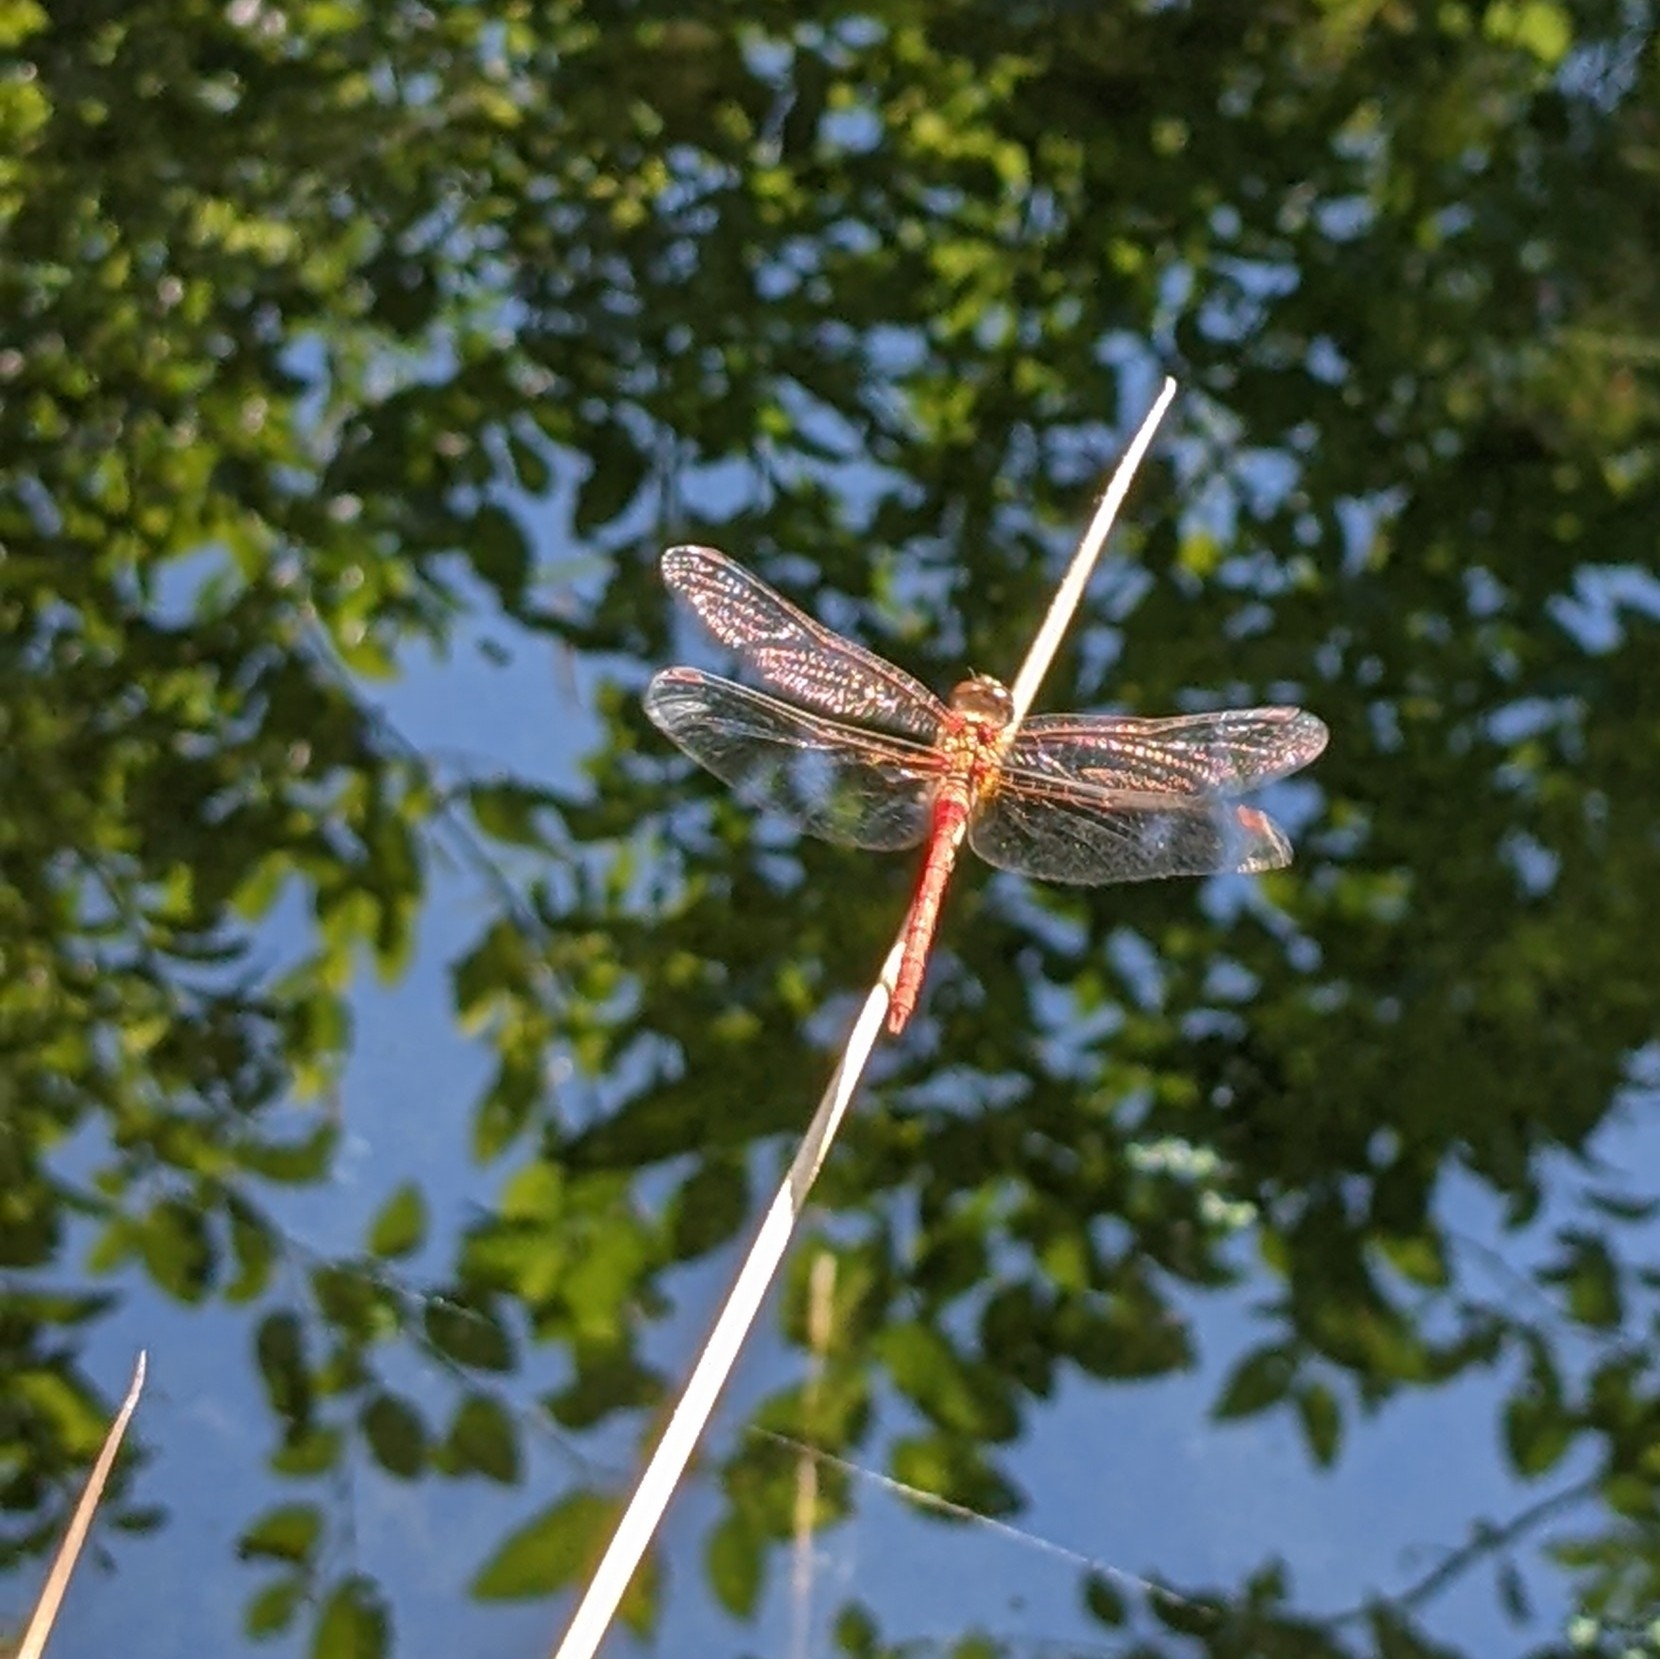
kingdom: Animalia
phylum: Arthropoda
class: Insecta
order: Odonata
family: Libellulidae
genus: Sympetrum
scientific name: Sympetrum pallipes
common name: Striped meadowhawk
